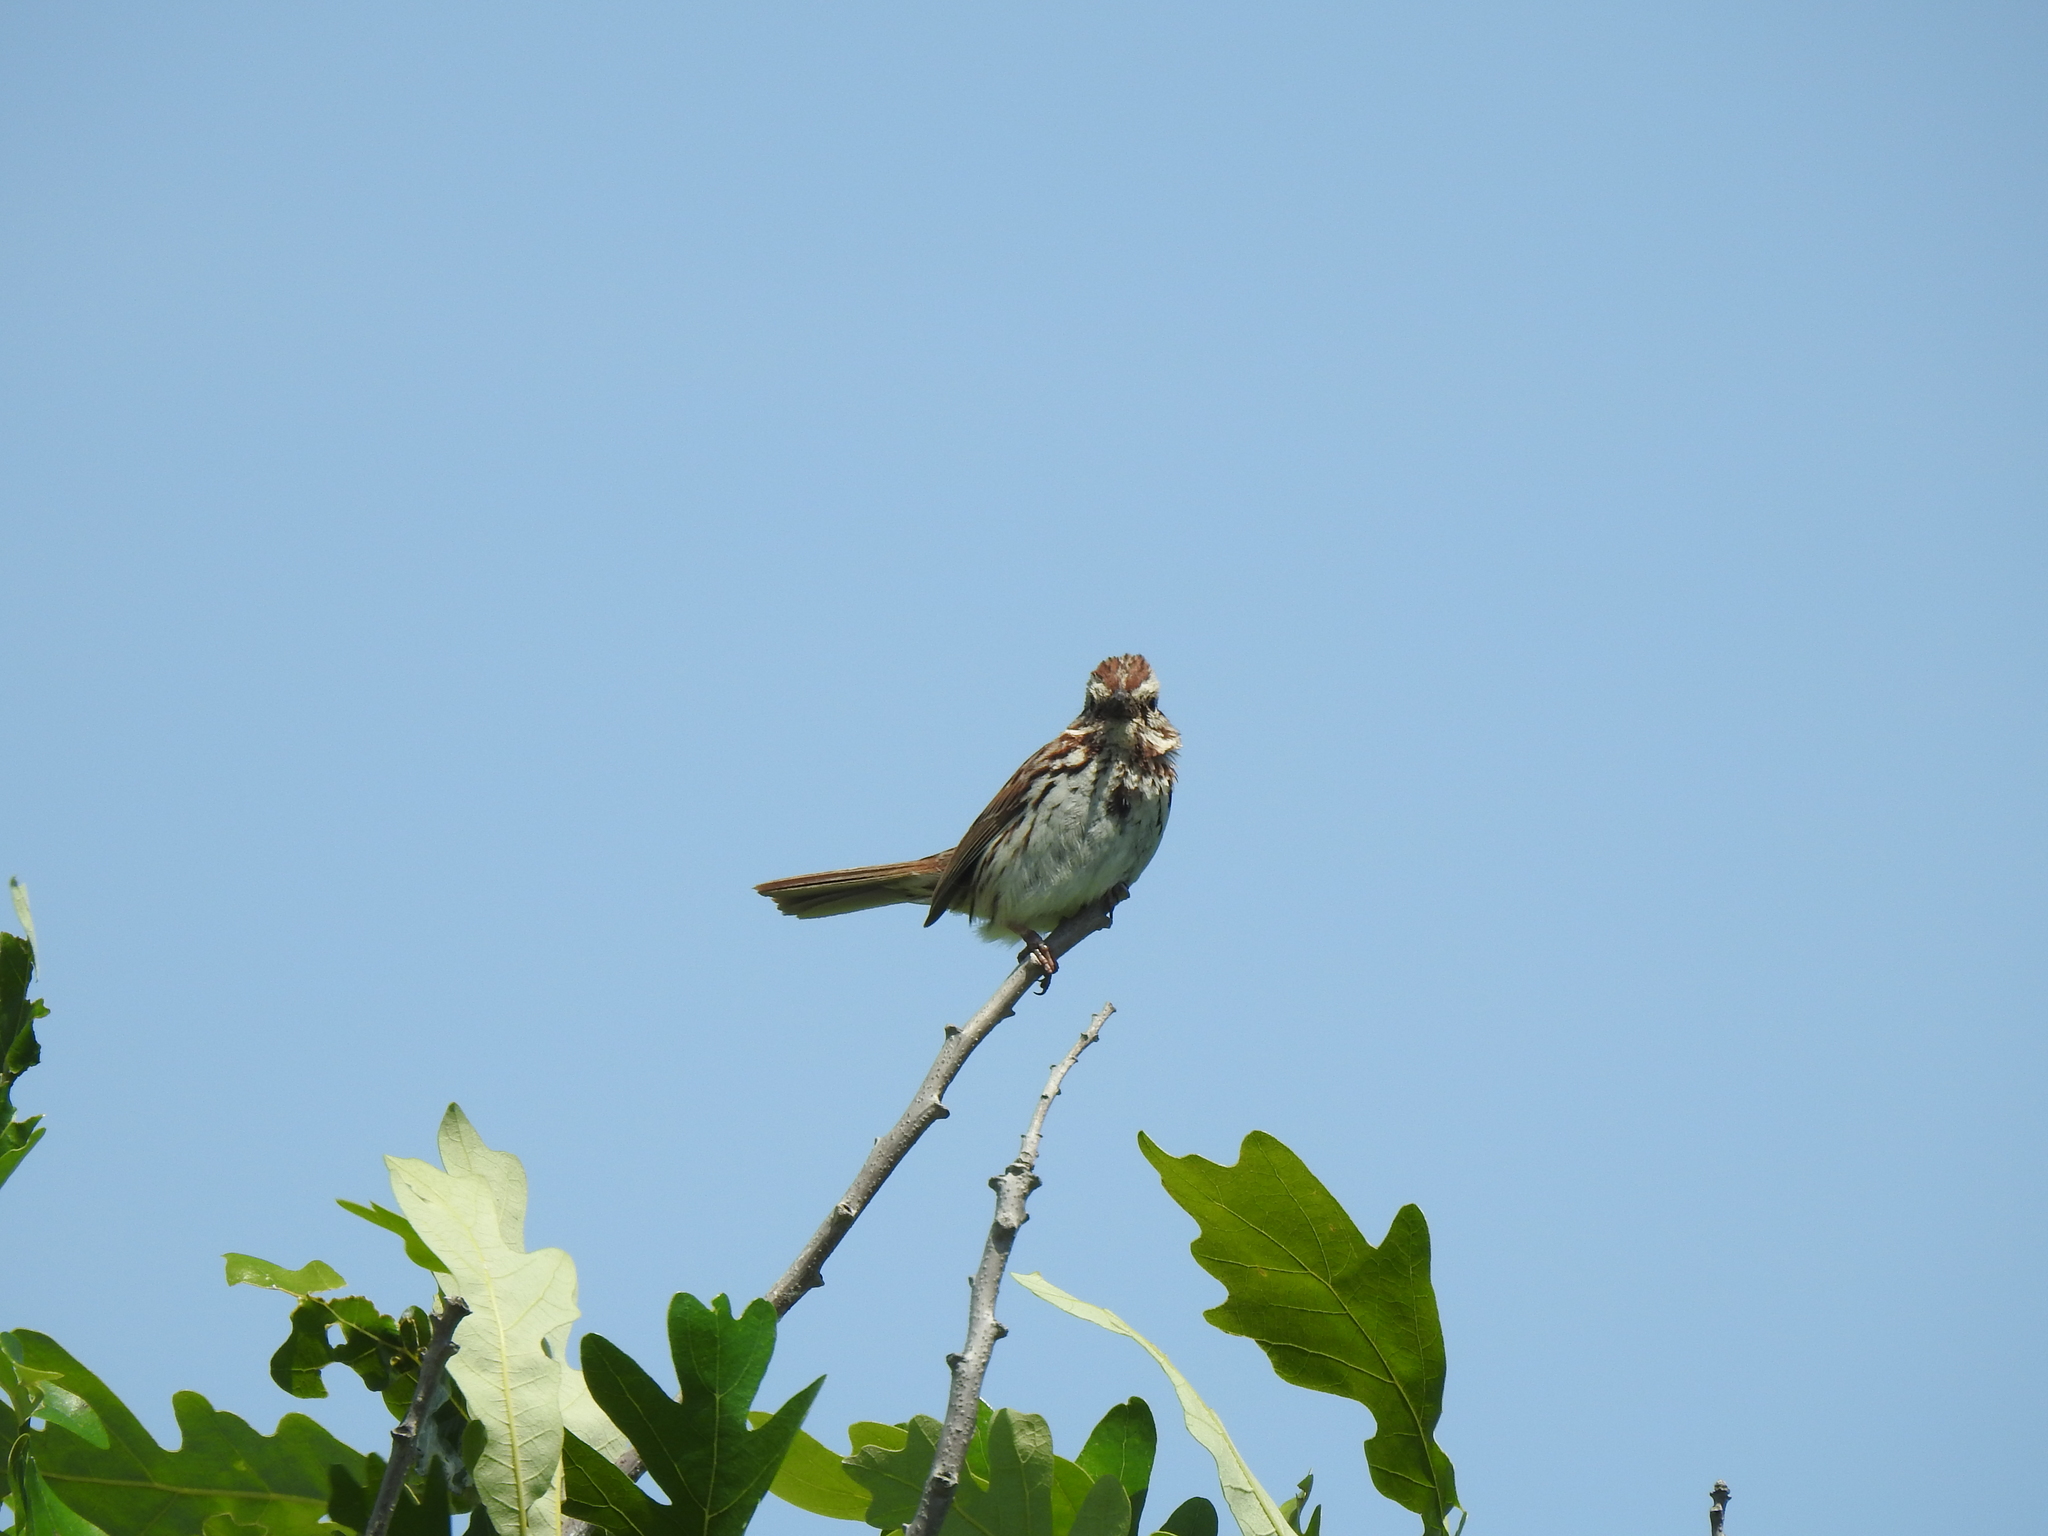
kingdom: Animalia
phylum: Chordata
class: Aves
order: Passeriformes
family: Passerellidae
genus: Melospiza
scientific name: Melospiza melodia
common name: Song sparrow
